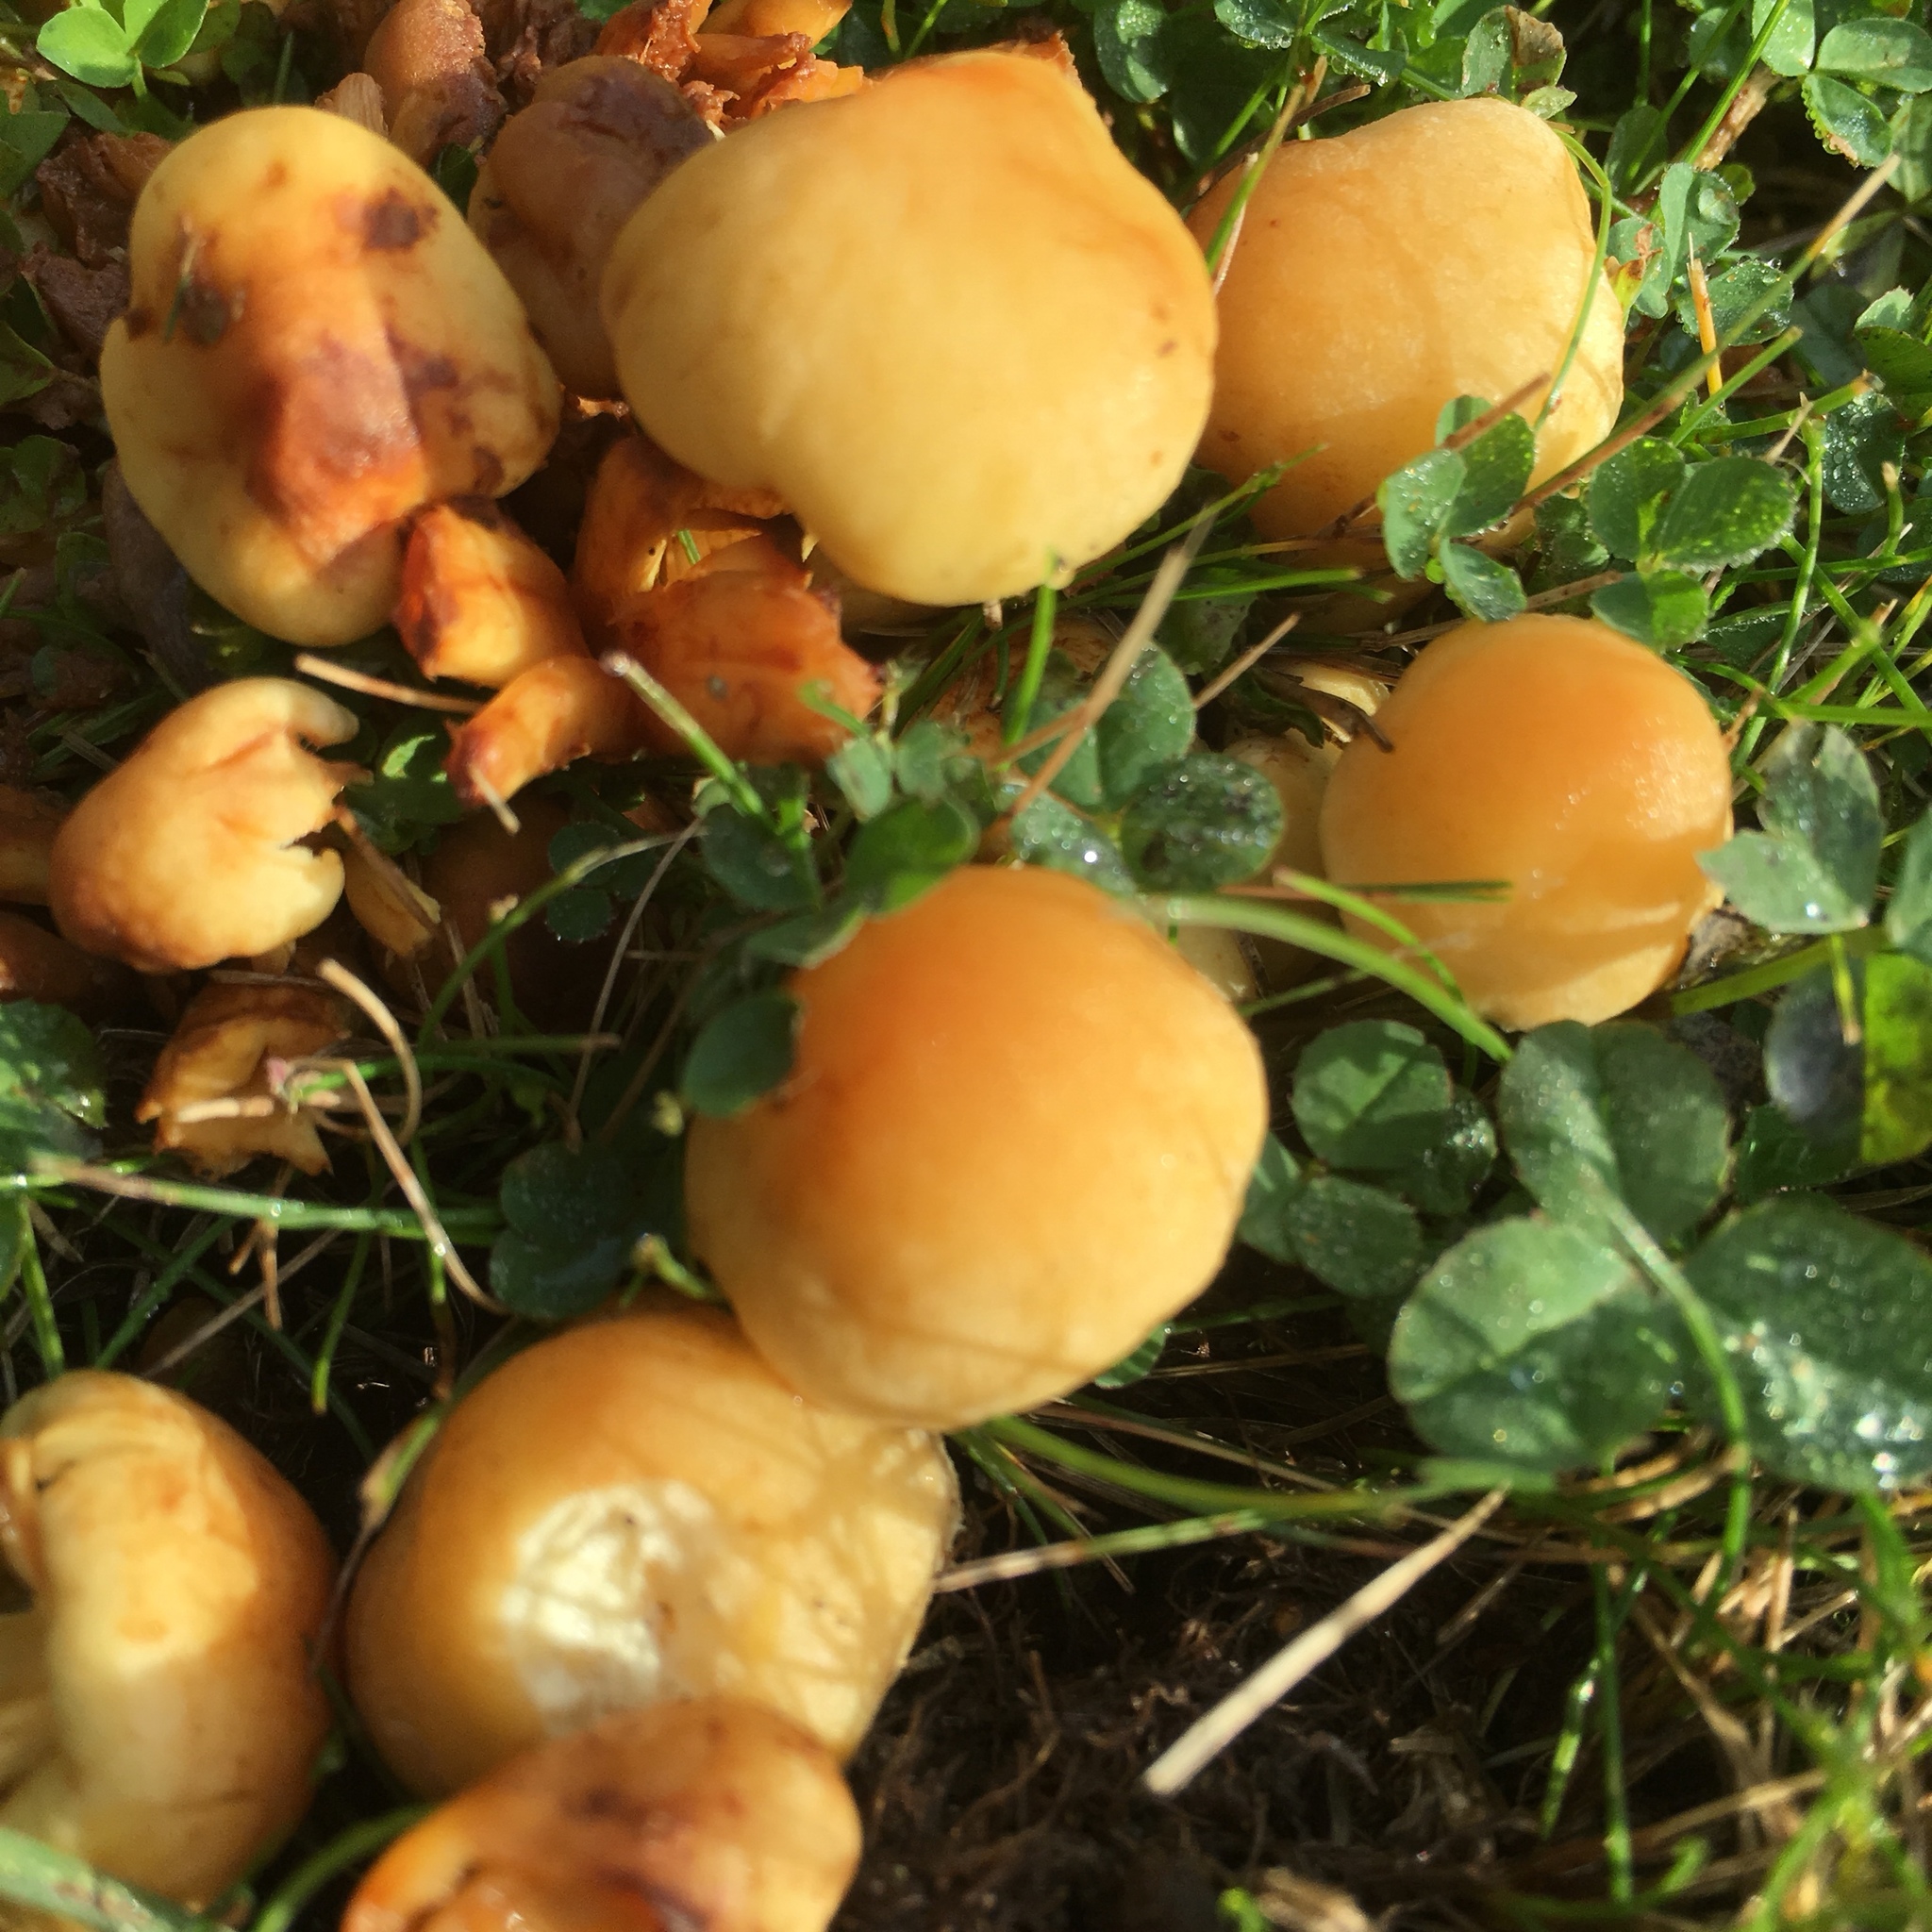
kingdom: Fungi
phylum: Basidiomycota
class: Agaricomycetes
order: Agaricales
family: Strophariaceae
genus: Hypholoma
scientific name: Hypholoma fasciculare
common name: Sulphur tuft
